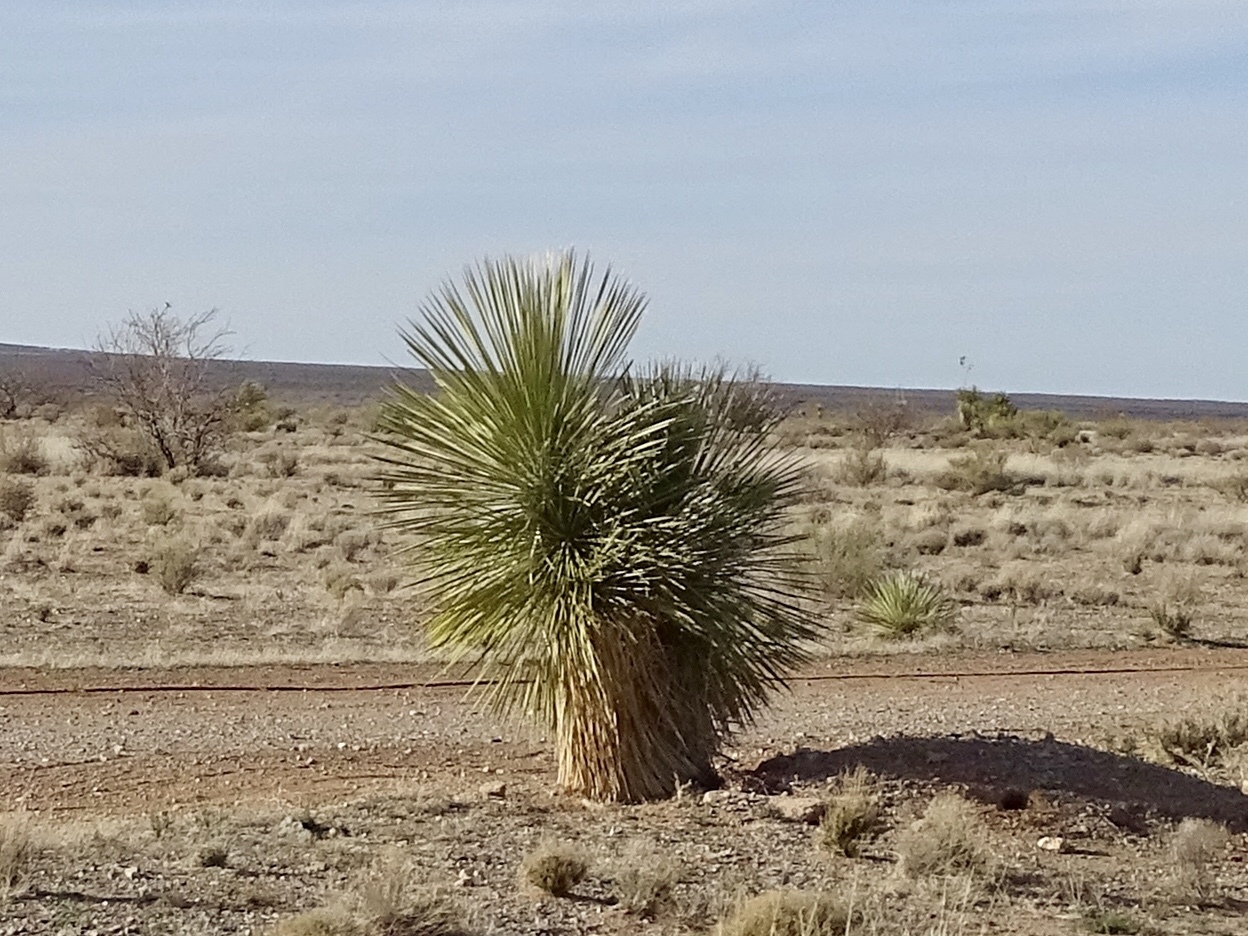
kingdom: Plantae
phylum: Tracheophyta
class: Liliopsida
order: Asparagales
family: Asparagaceae
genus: Yucca
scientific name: Yucca elata
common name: Palmella
